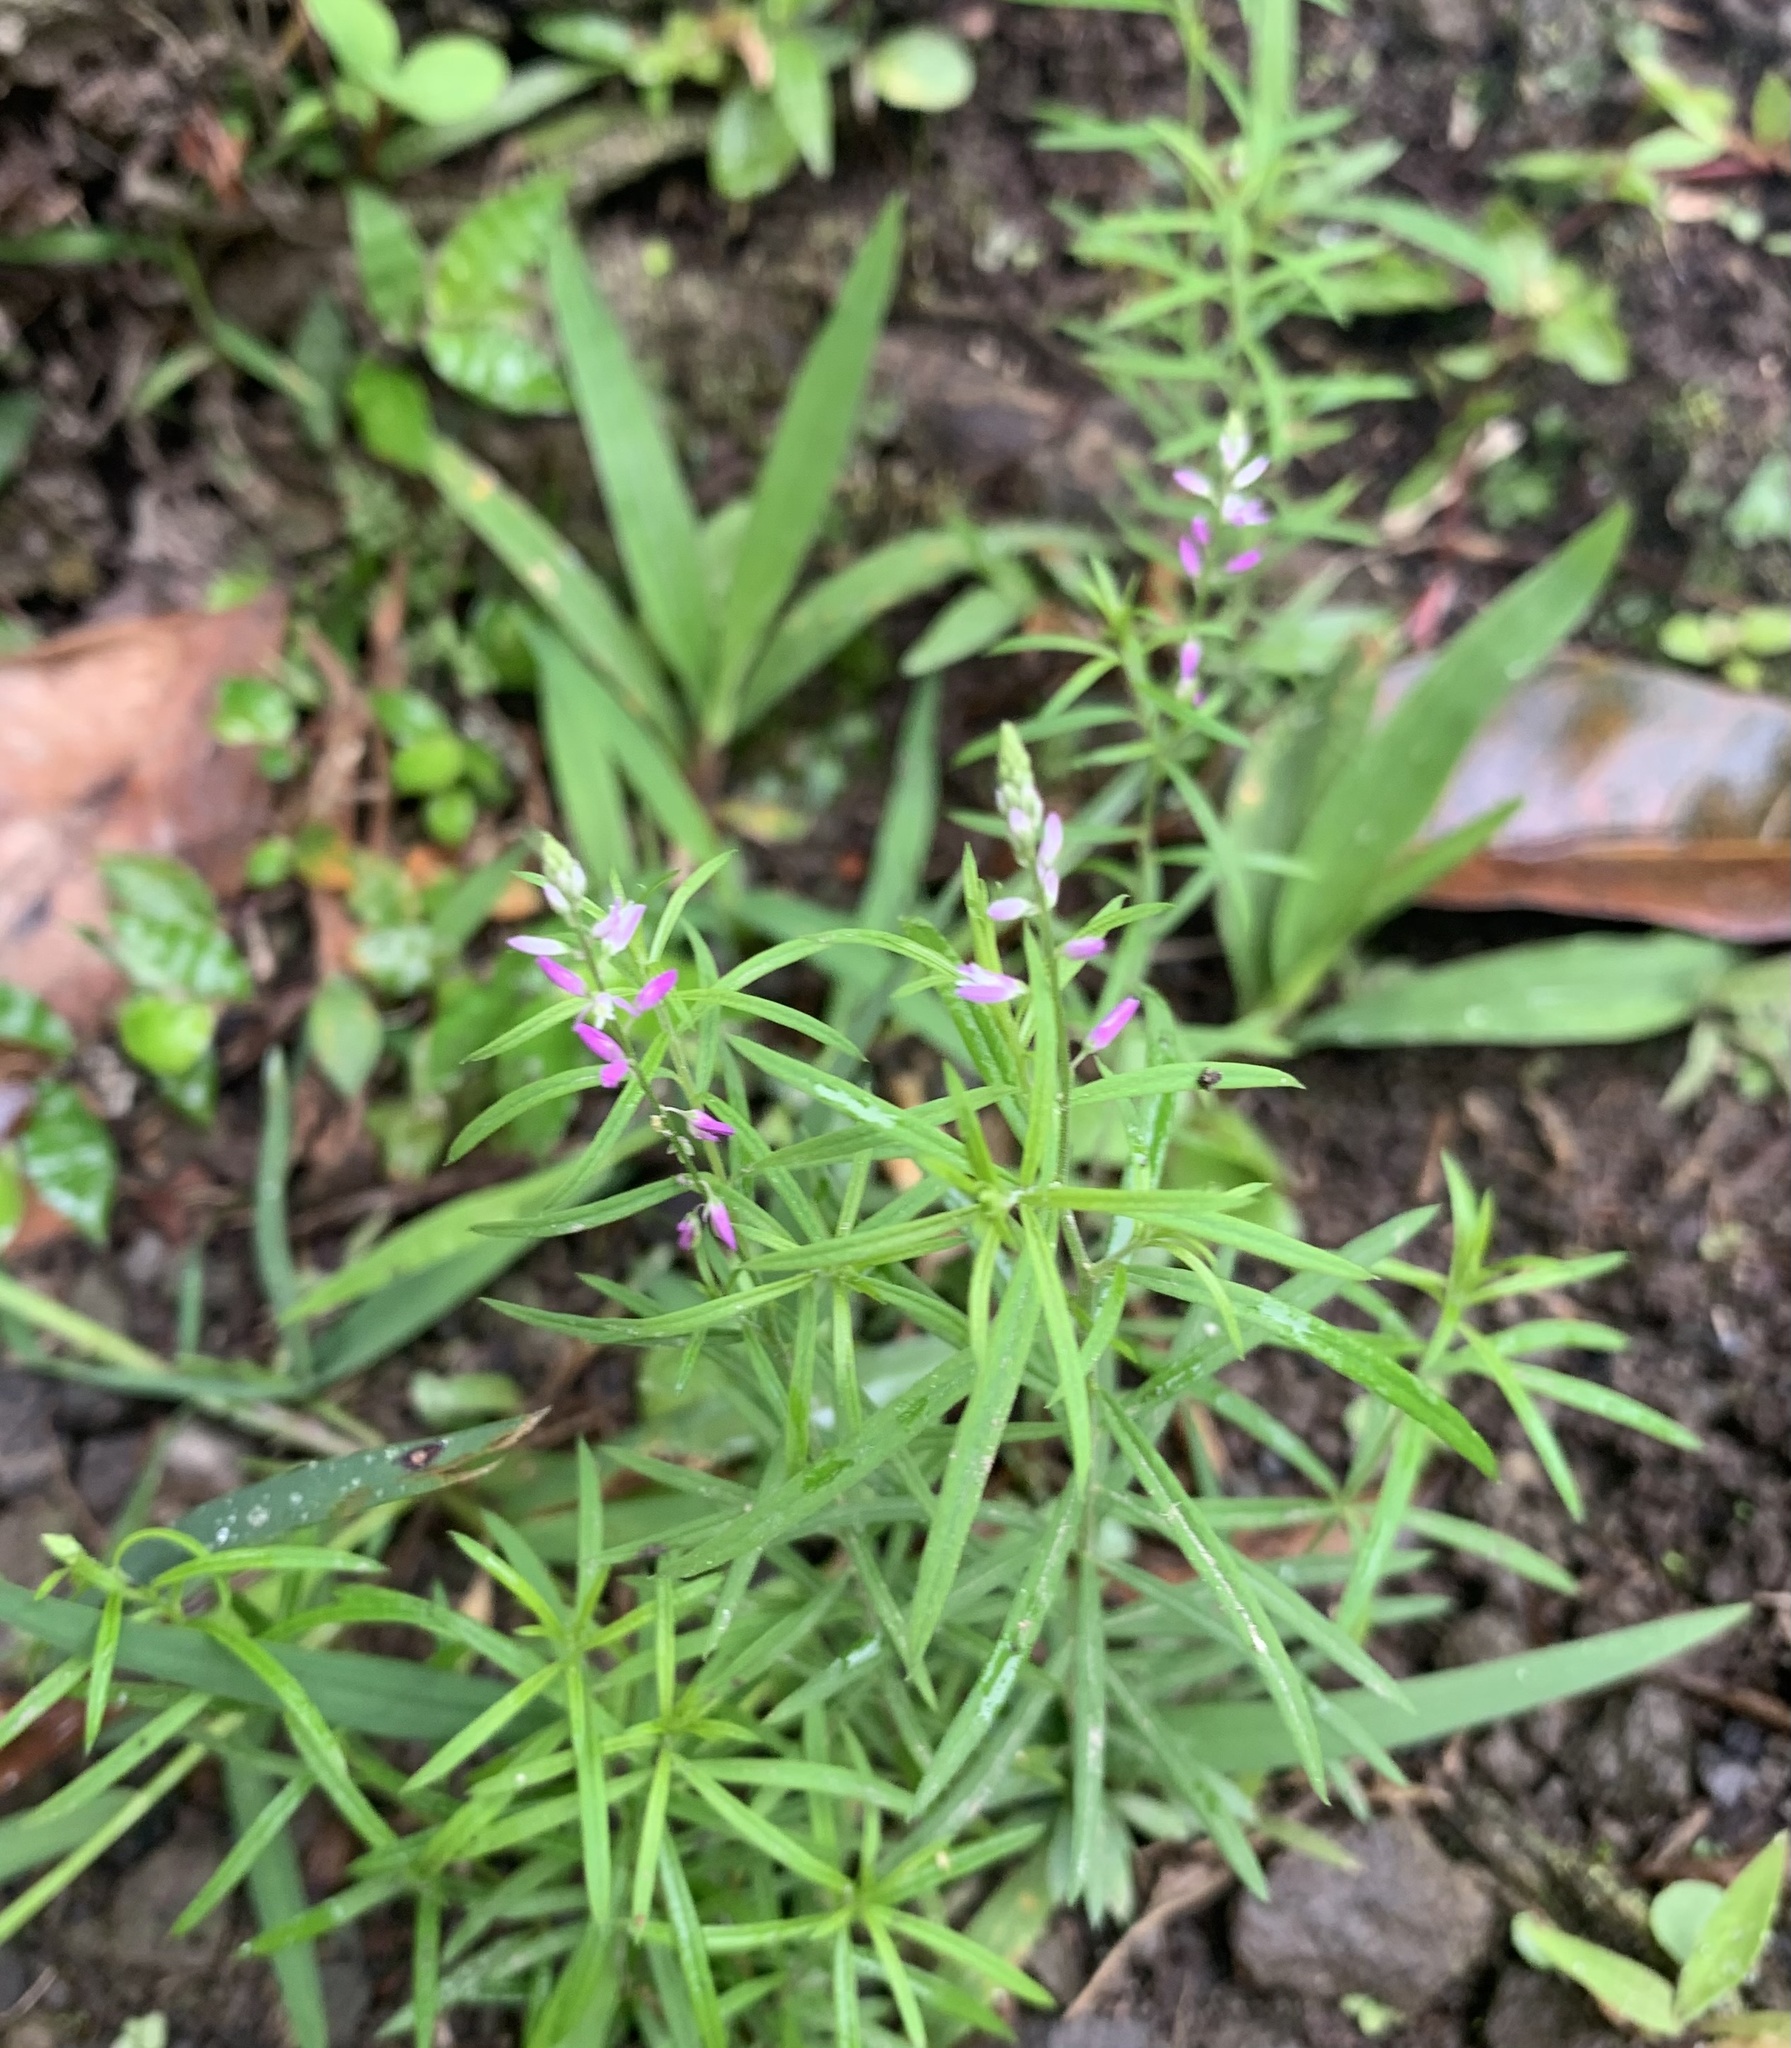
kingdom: Plantae
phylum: Tracheophyta
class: Magnoliopsida
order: Fabales
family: Polygalaceae
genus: Polygala
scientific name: Polygala paniculata
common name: Orosne
